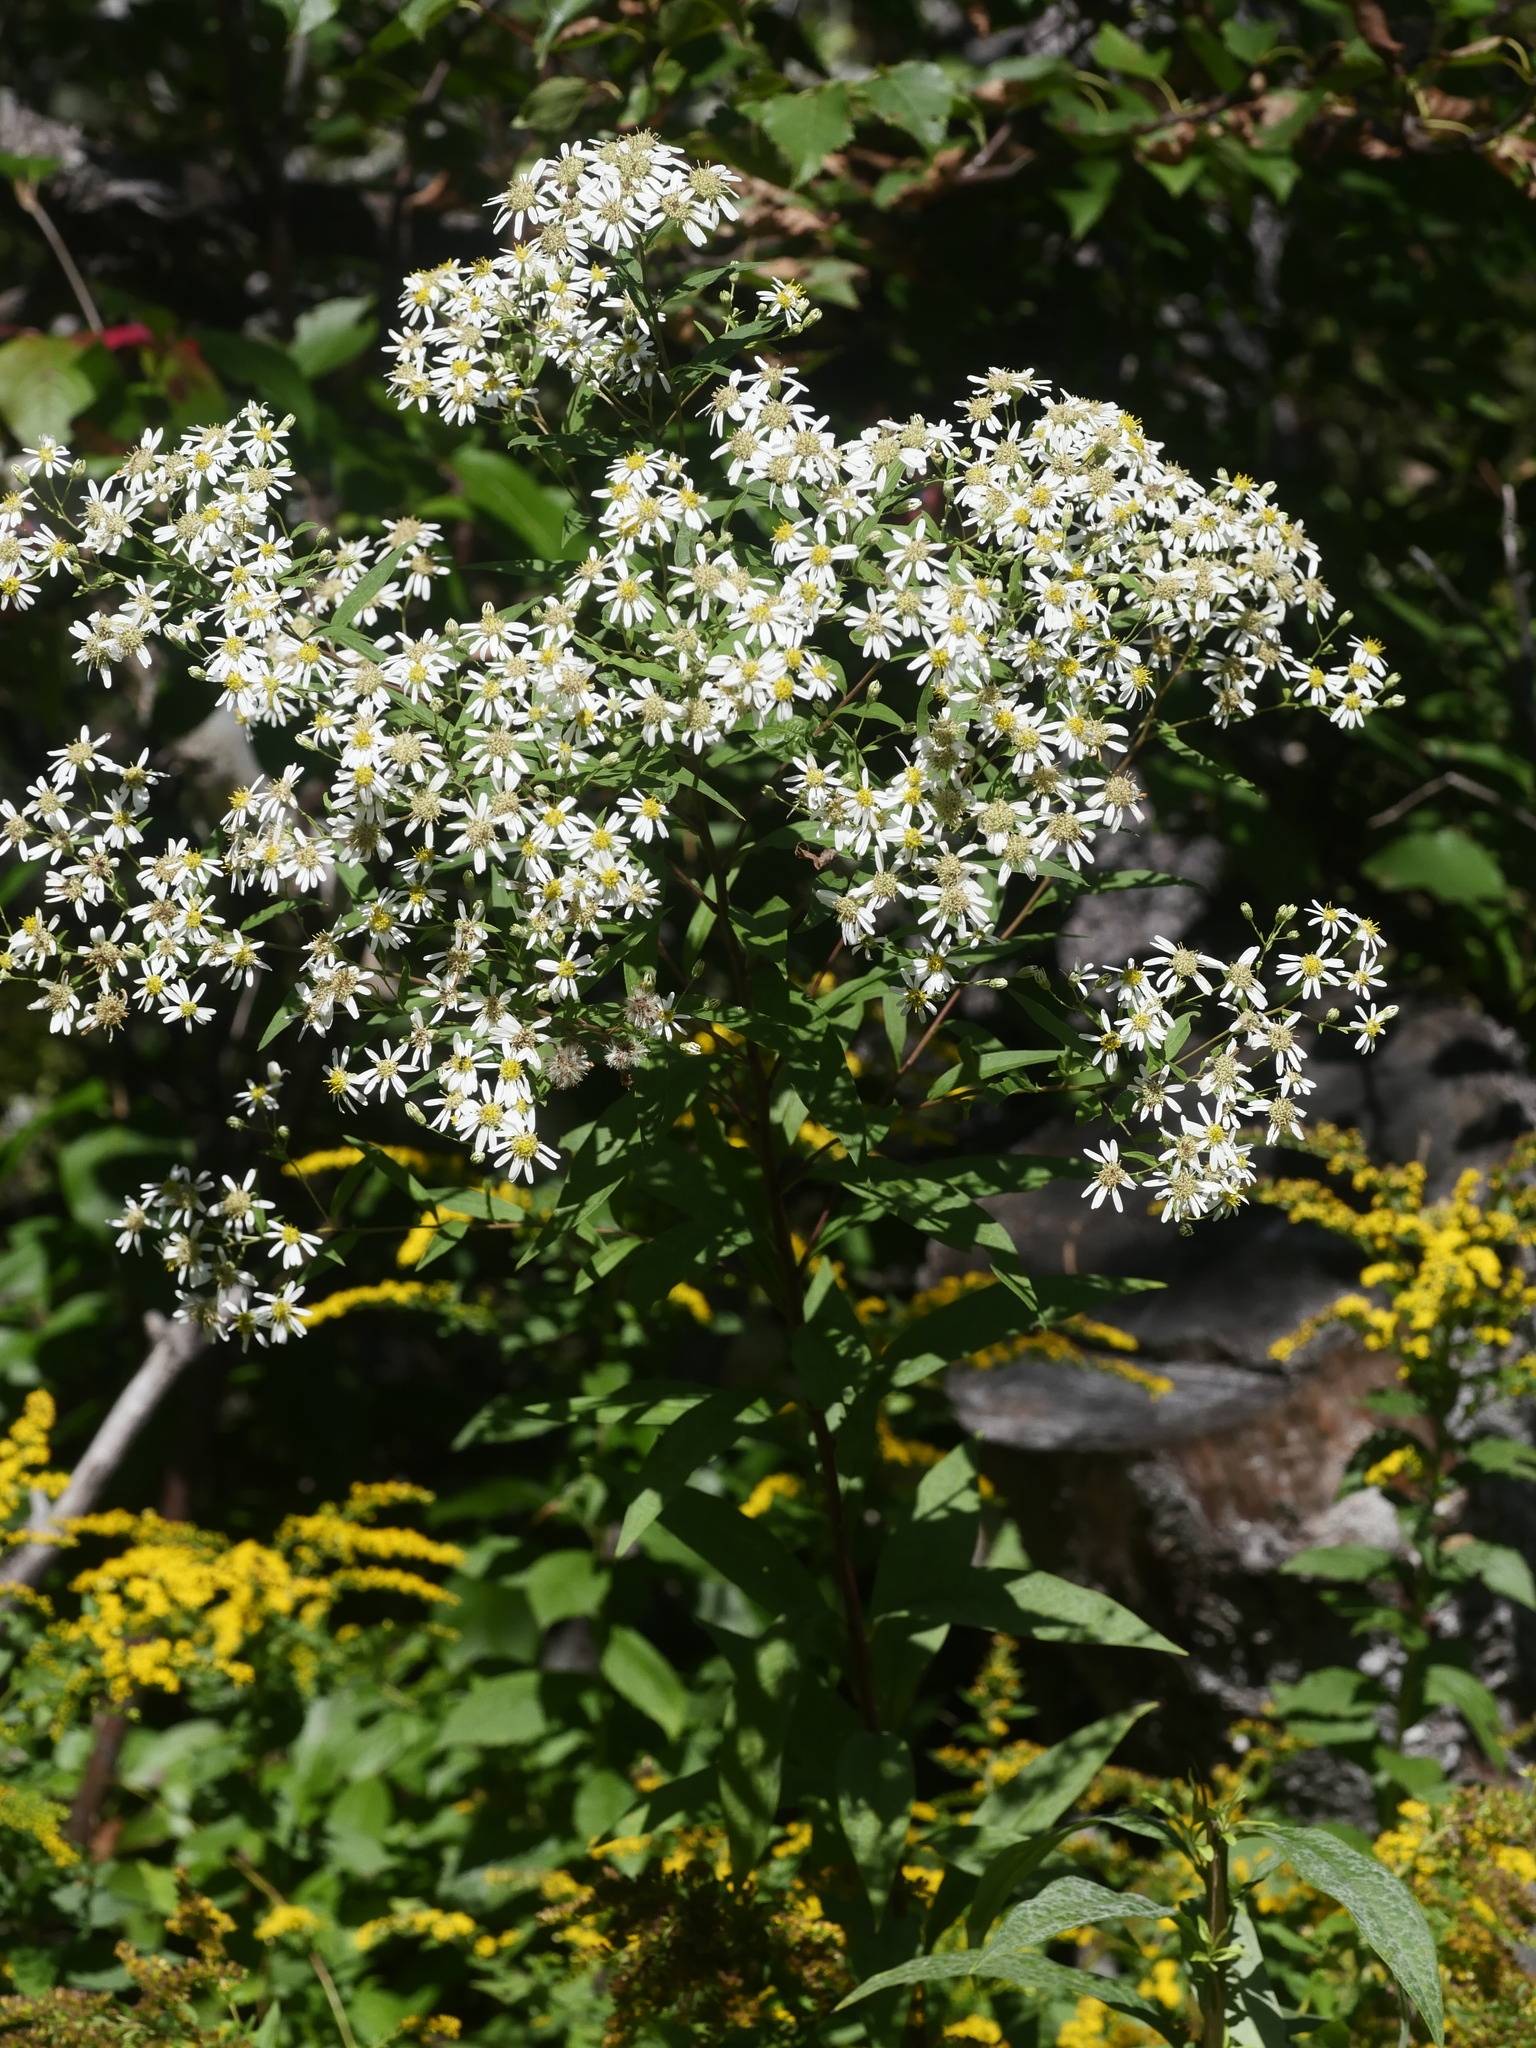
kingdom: Plantae
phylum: Tracheophyta
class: Magnoliopsida
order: Asterales
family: Asteraceae
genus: Doellingeria
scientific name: Doellingeria umbellata
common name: Flat-top white aster
